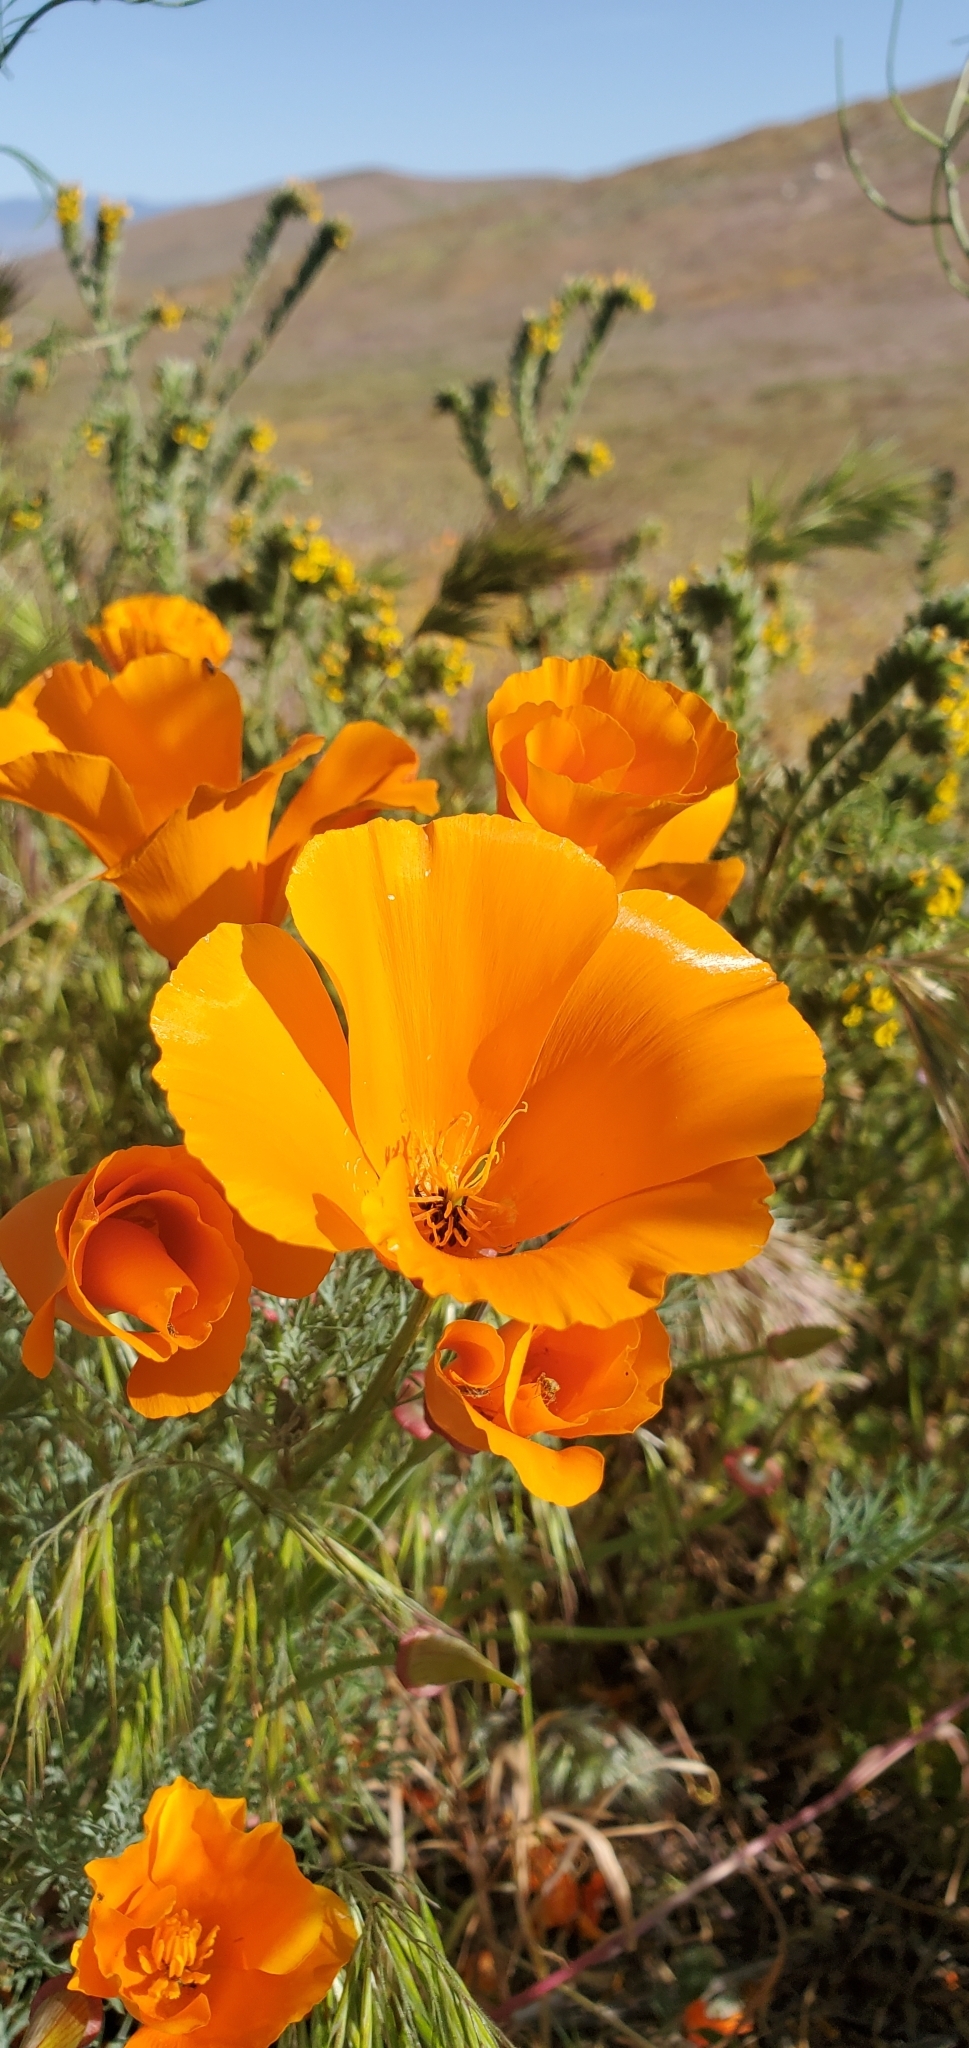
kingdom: Plantae
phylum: Tracheophyta
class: Magnoliopsida
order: Ranunculales
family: Papaveraceae
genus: Eschscholzia
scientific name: Eschscholzia californica
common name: California poppy
